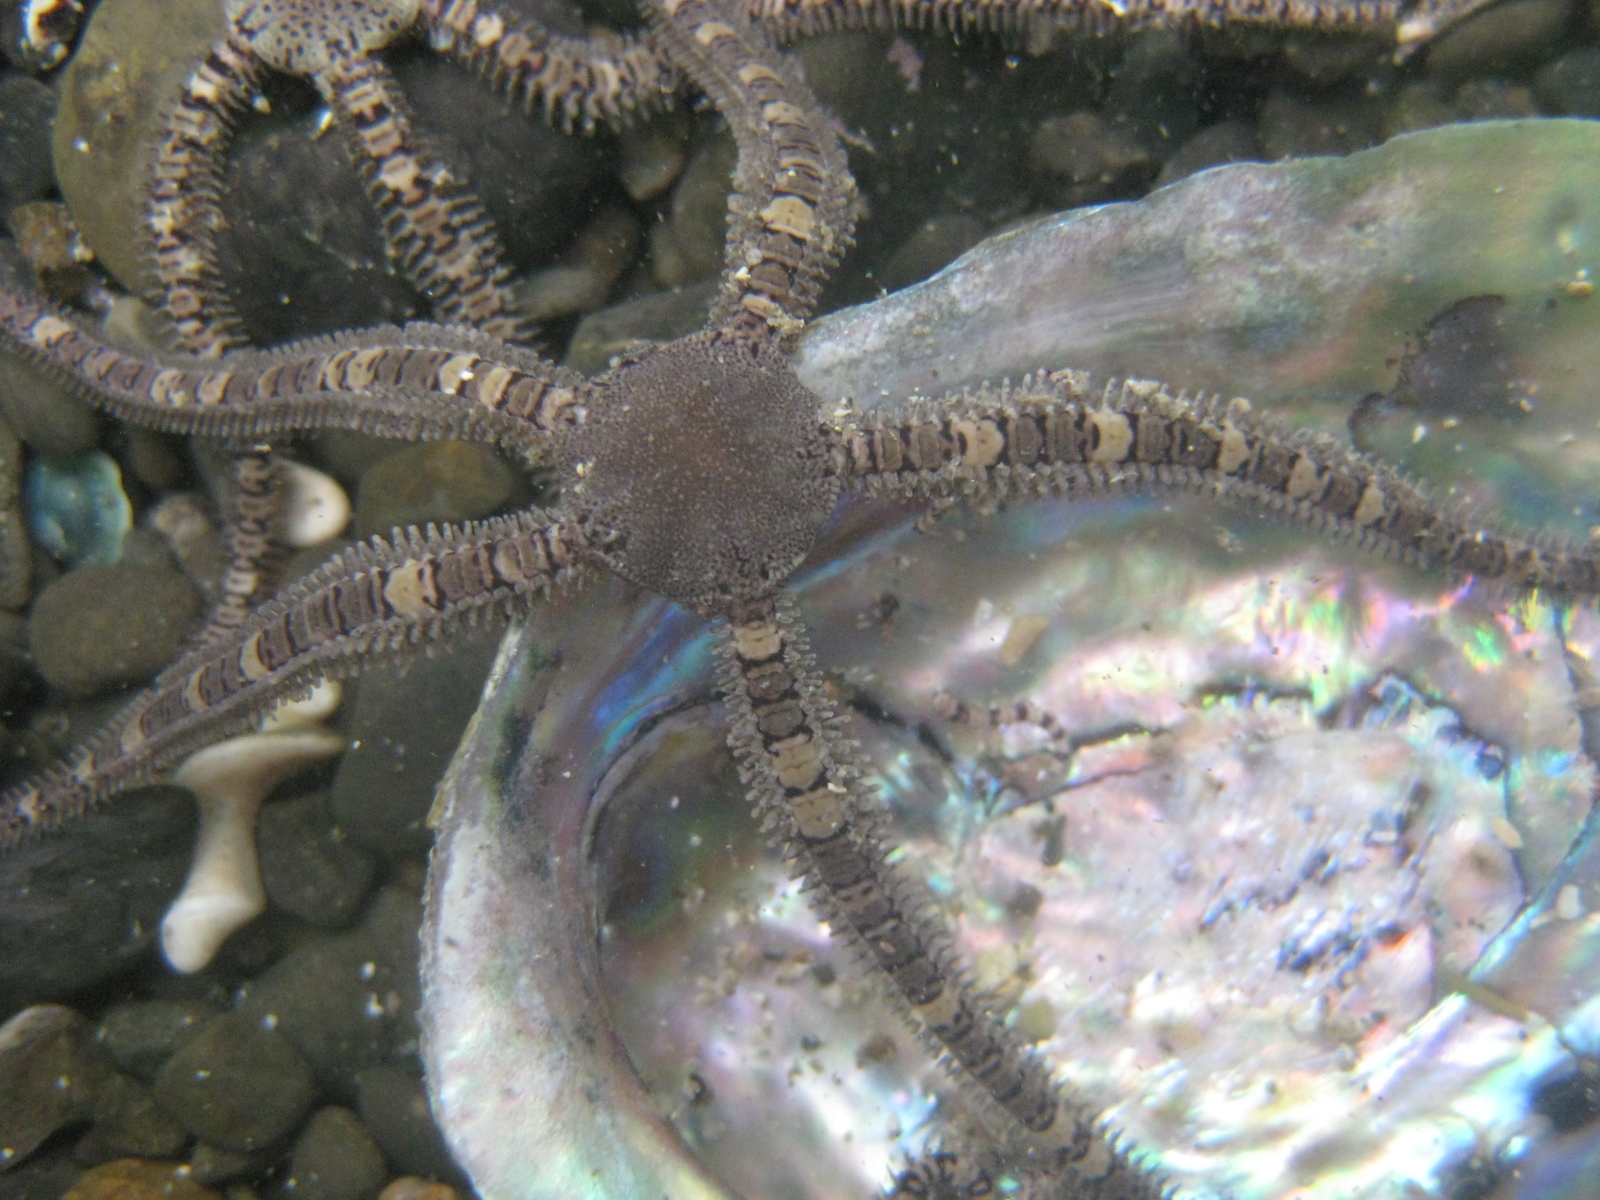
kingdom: Animalia
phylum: Echinodermata
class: Ophiuroidea
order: Amphilepidida
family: Ophionereididae
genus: Ophionereis
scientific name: Ophionereis fasciata
